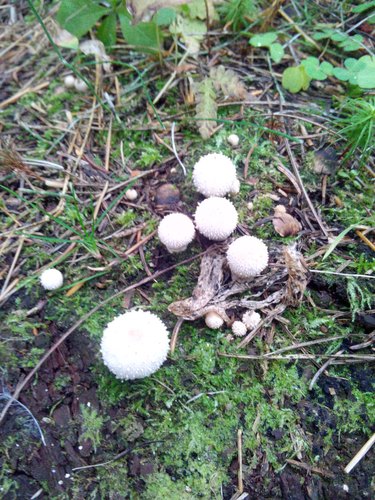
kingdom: Fungi
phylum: Basidiomycota
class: Agaricomycetes
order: Agaricales
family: Lycoperdaceae
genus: Lycoperdon
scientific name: Lycoperdon perlatum
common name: Common puffball
